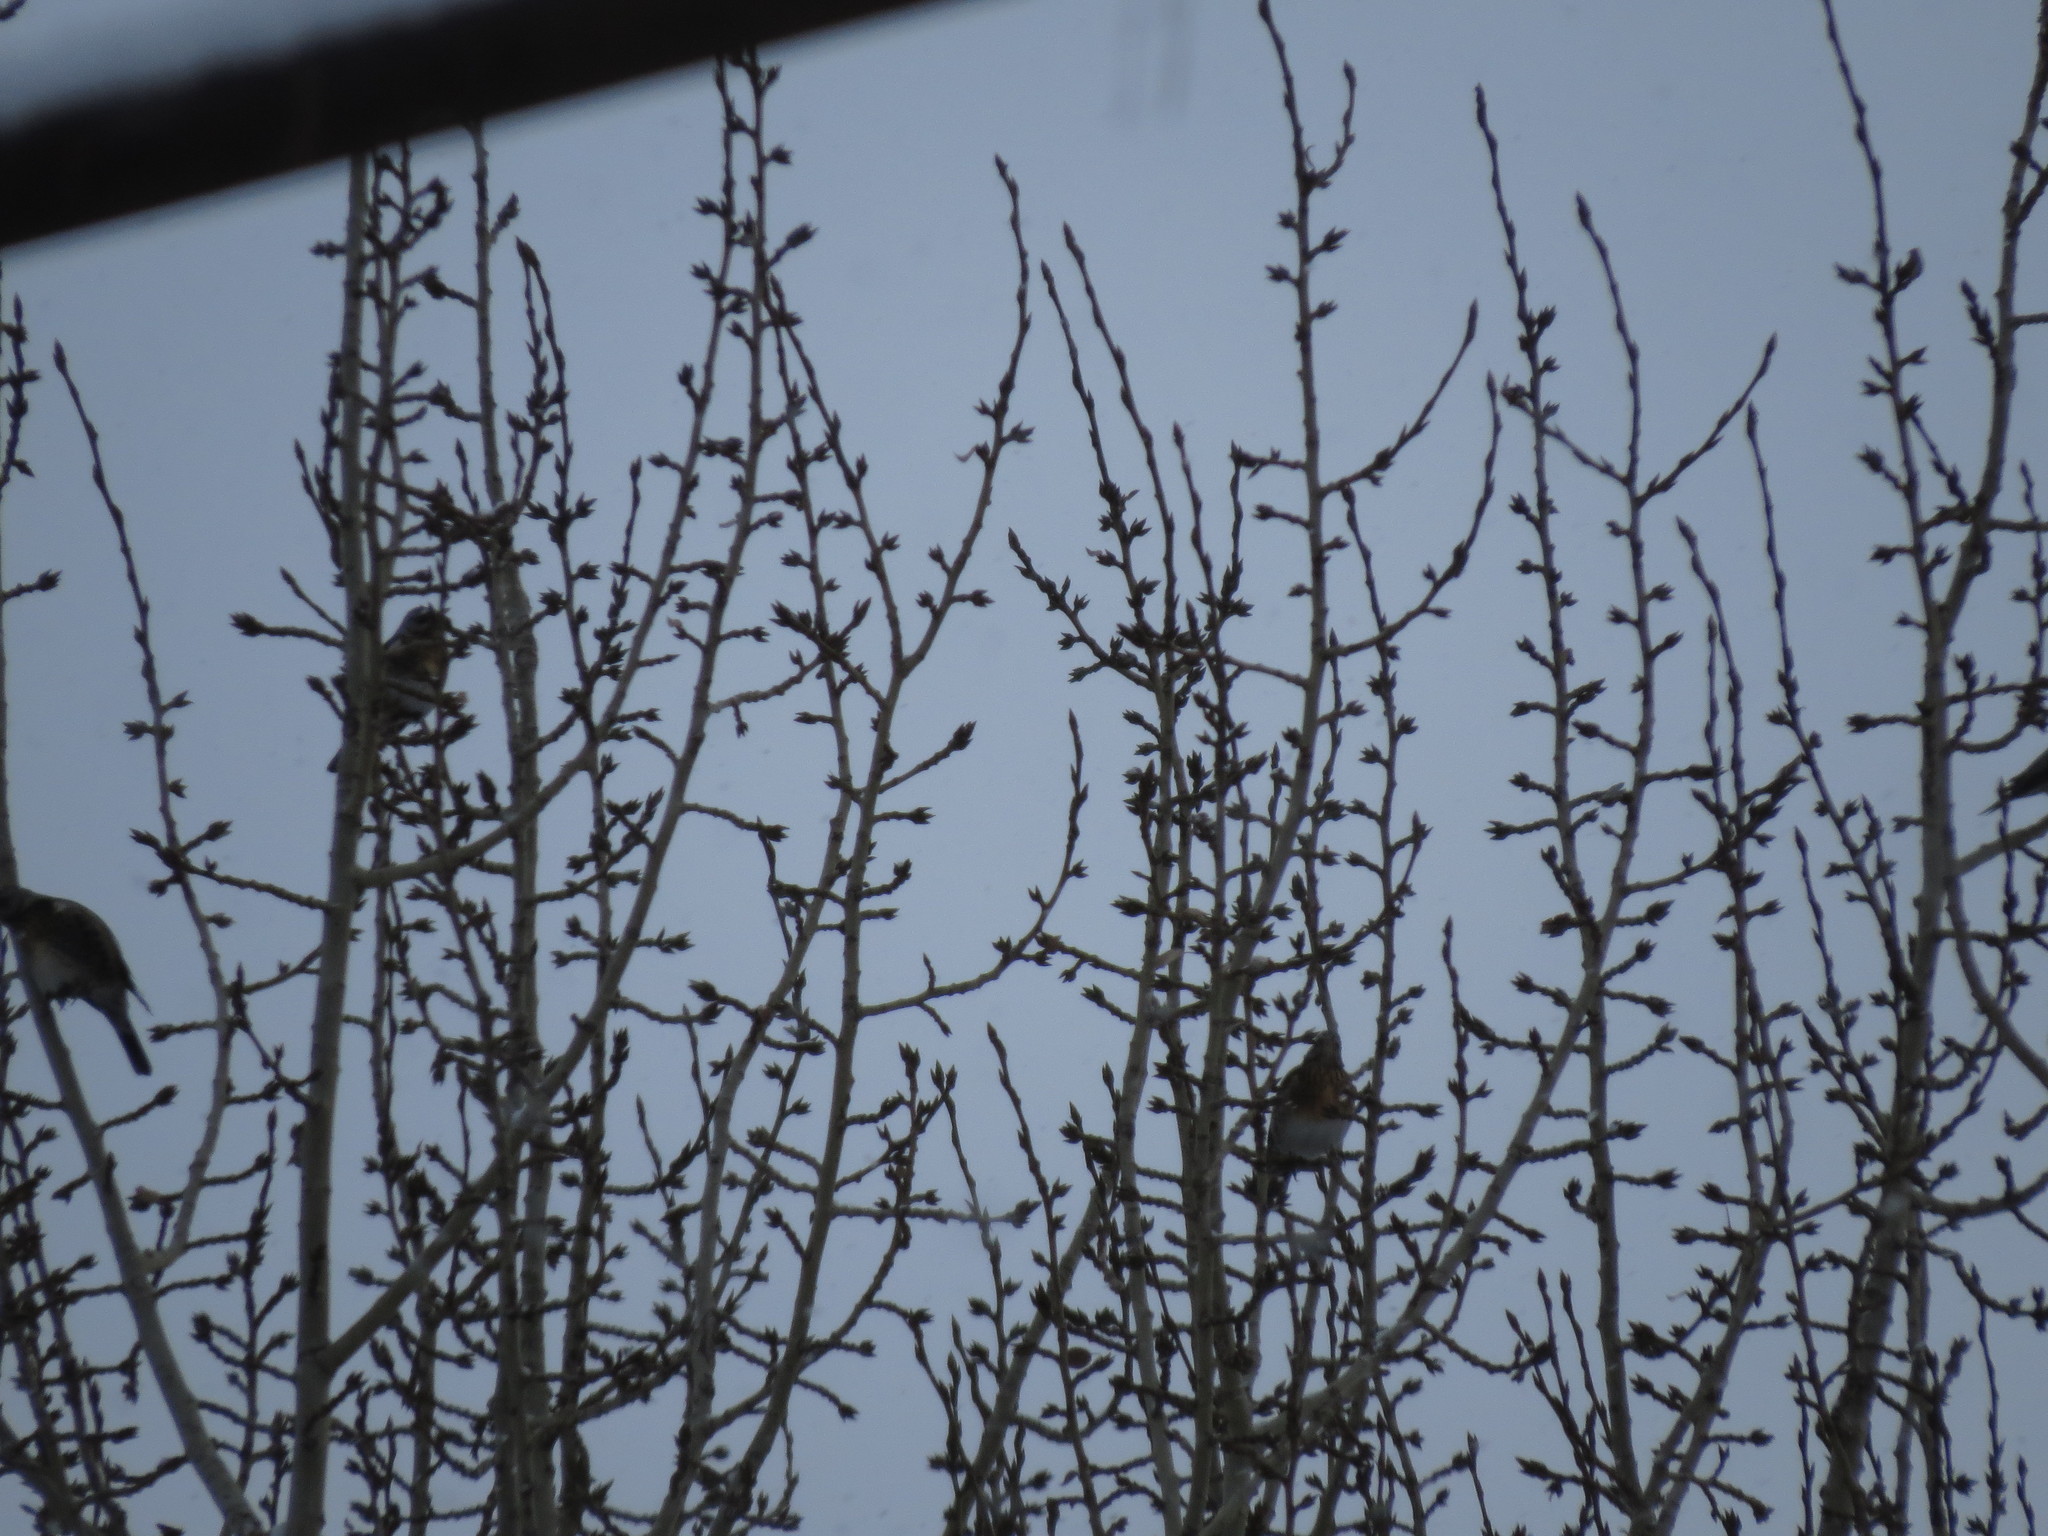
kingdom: Animalia
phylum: Chordata
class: Aves
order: Passeriformes
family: Turdidae
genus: Turdus
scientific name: Turdus pilaris
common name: Fieldfare
